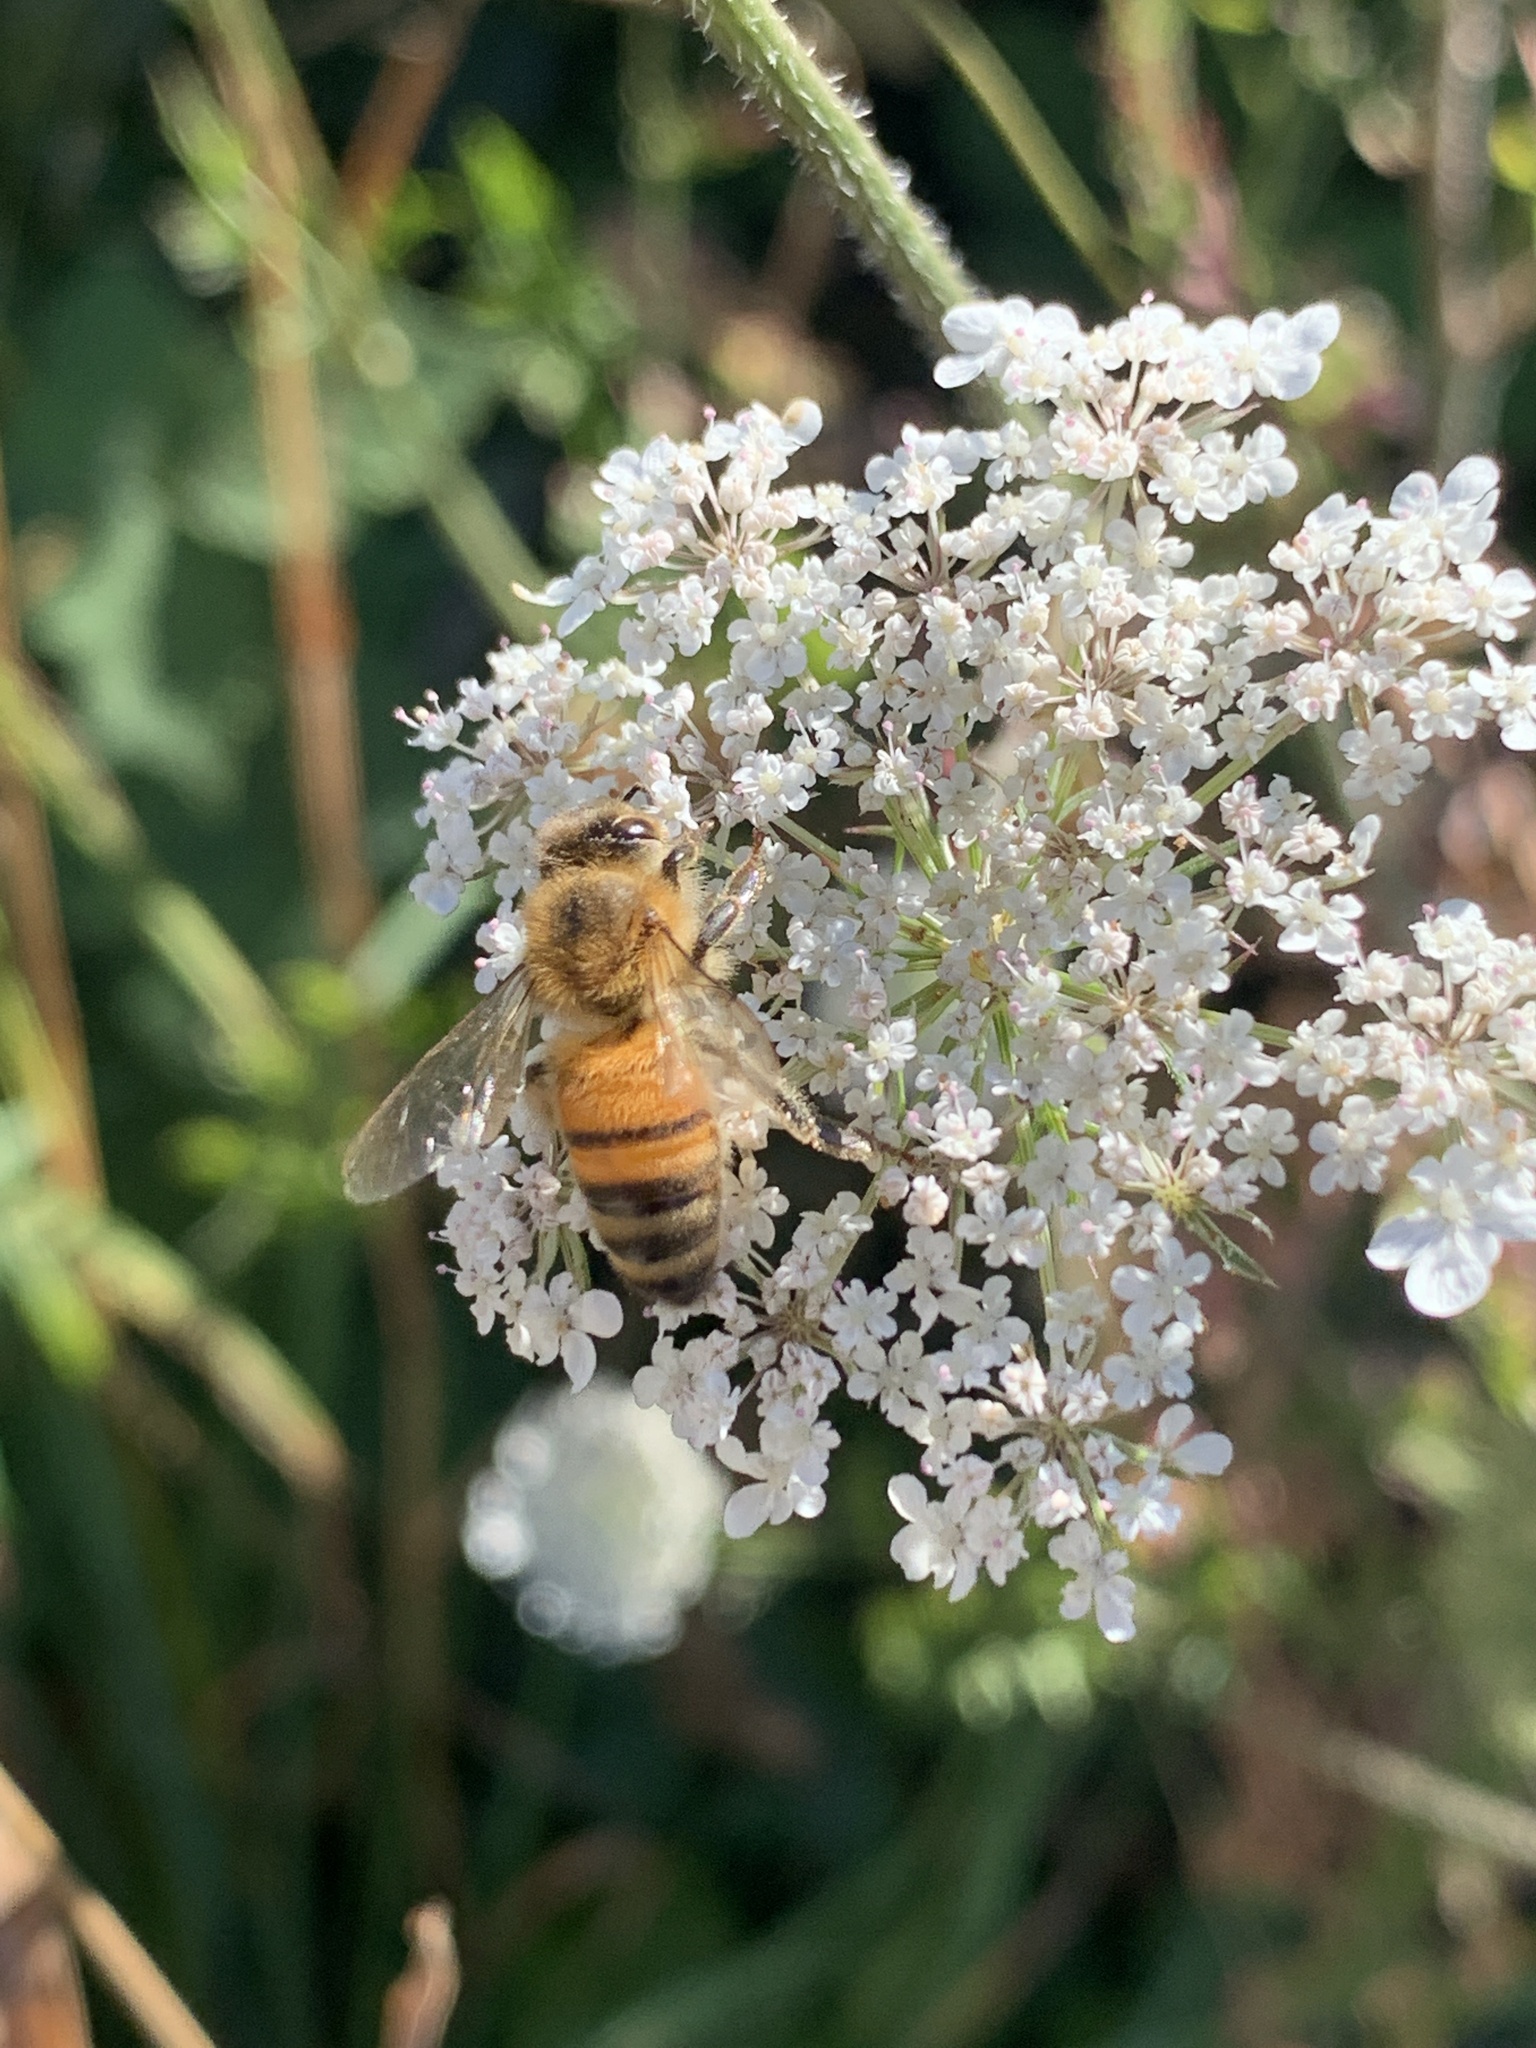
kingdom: Animalia
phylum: Arthropoda
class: Insecta
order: Hymenoptera
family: Apidae
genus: Apis
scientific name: Apis mellifera
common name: Honey bee
